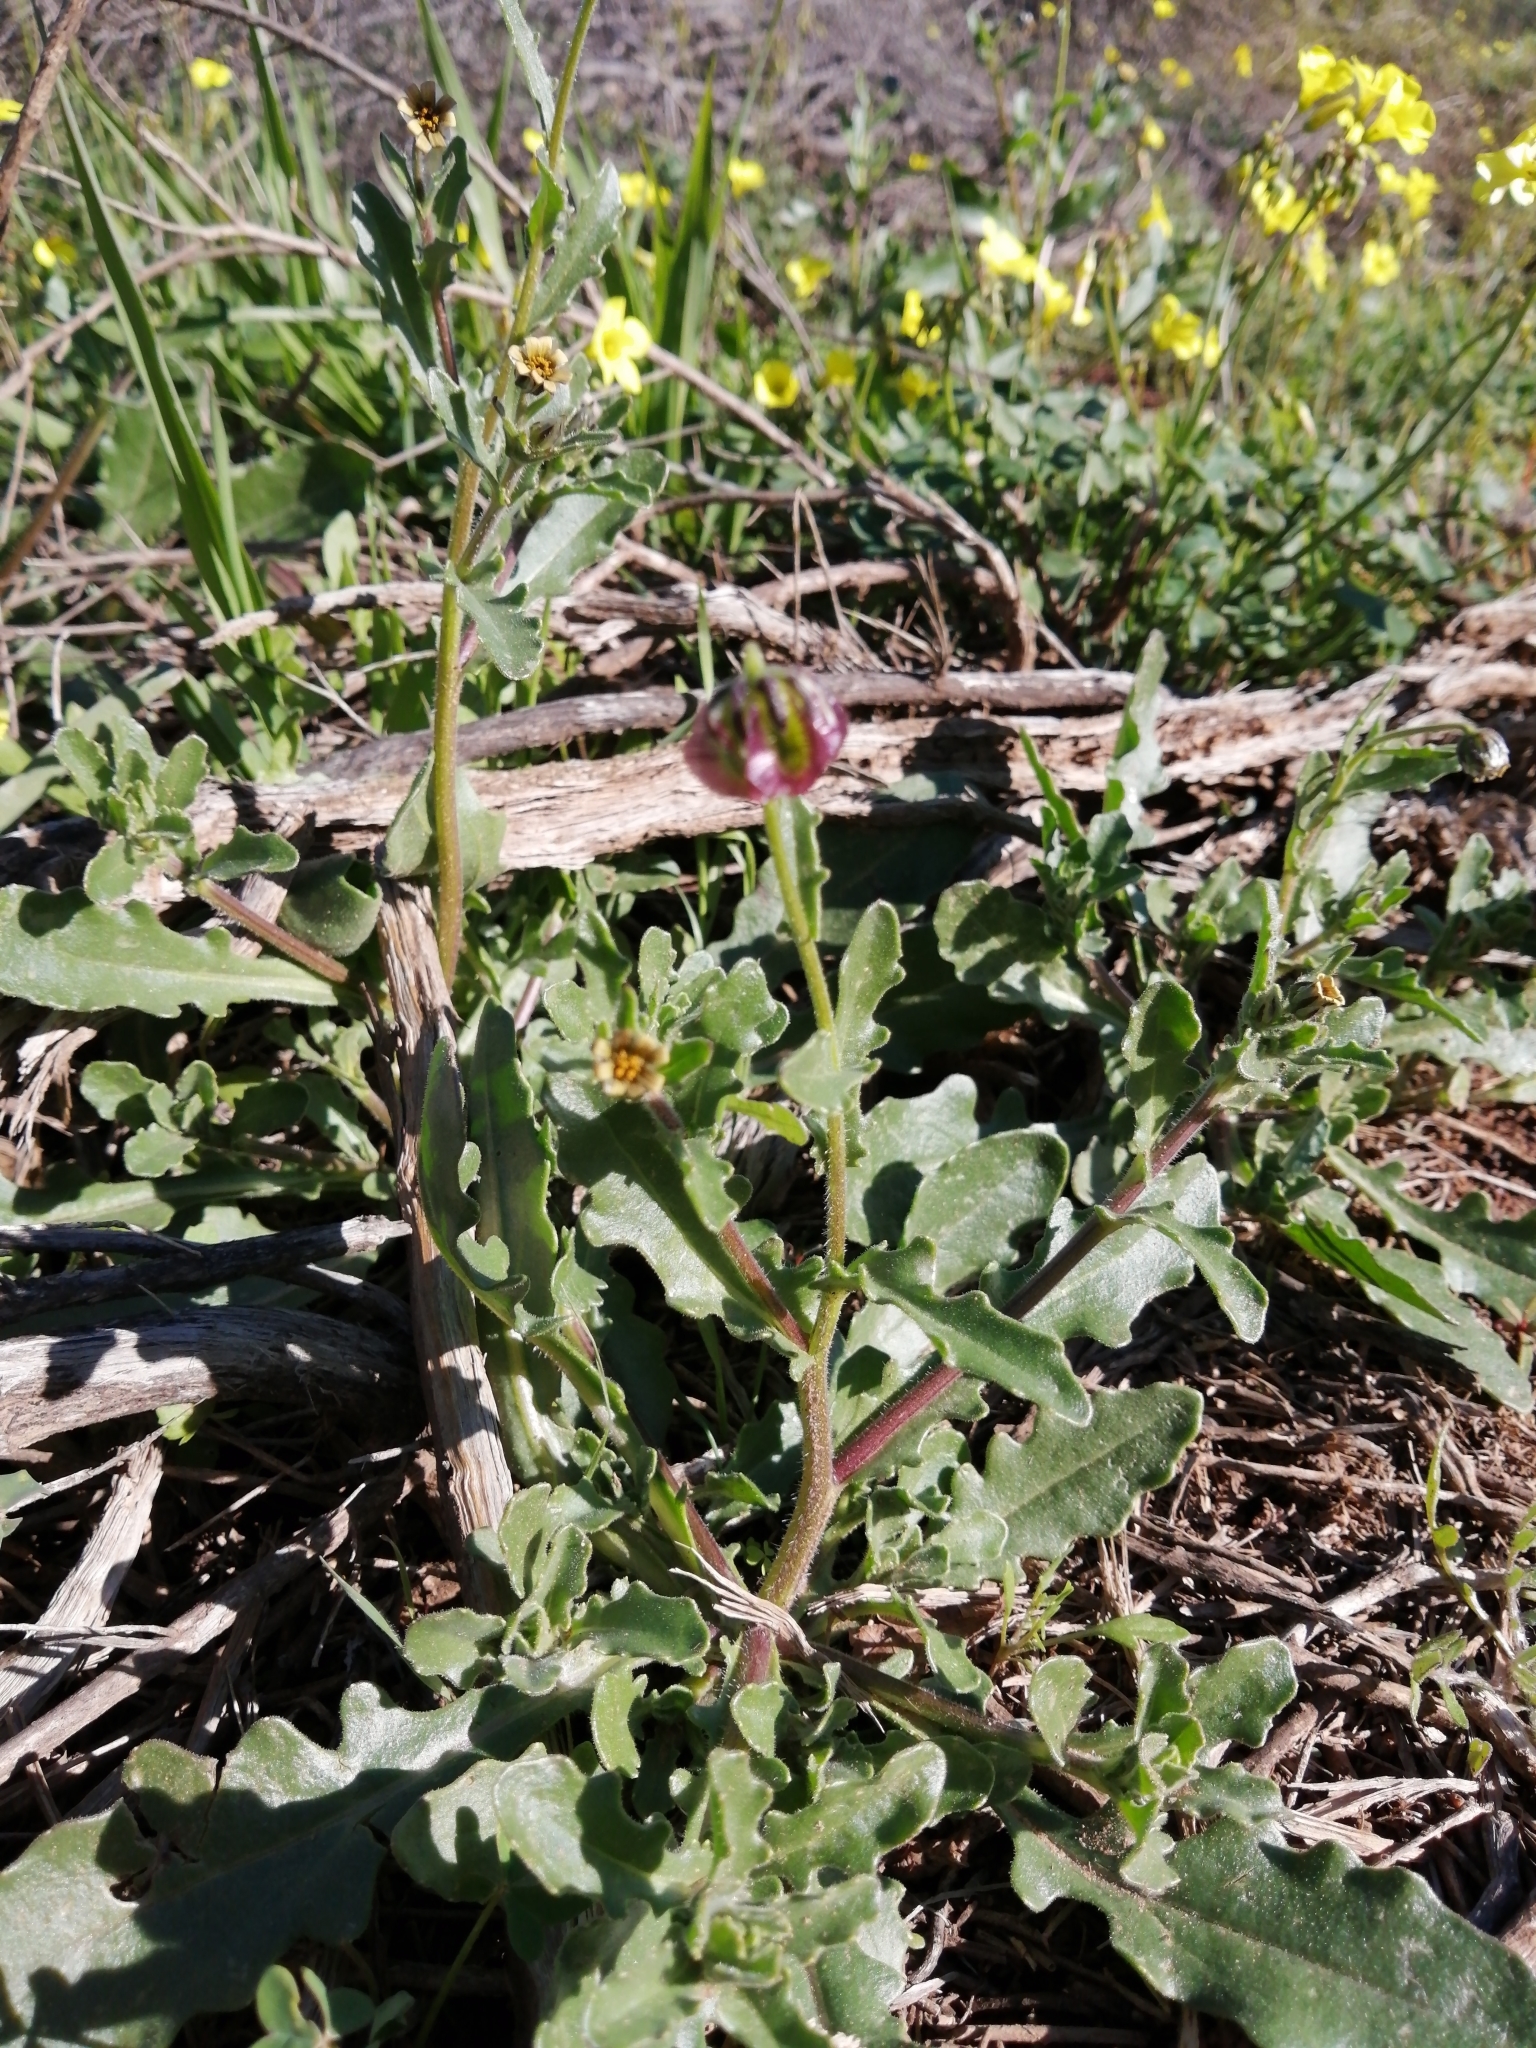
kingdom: Plantae
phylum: Tracheophyta
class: Magnoliopsida
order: Asterales
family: Asteraceae
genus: Osteospermum
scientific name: Osteospermum monstrosum
